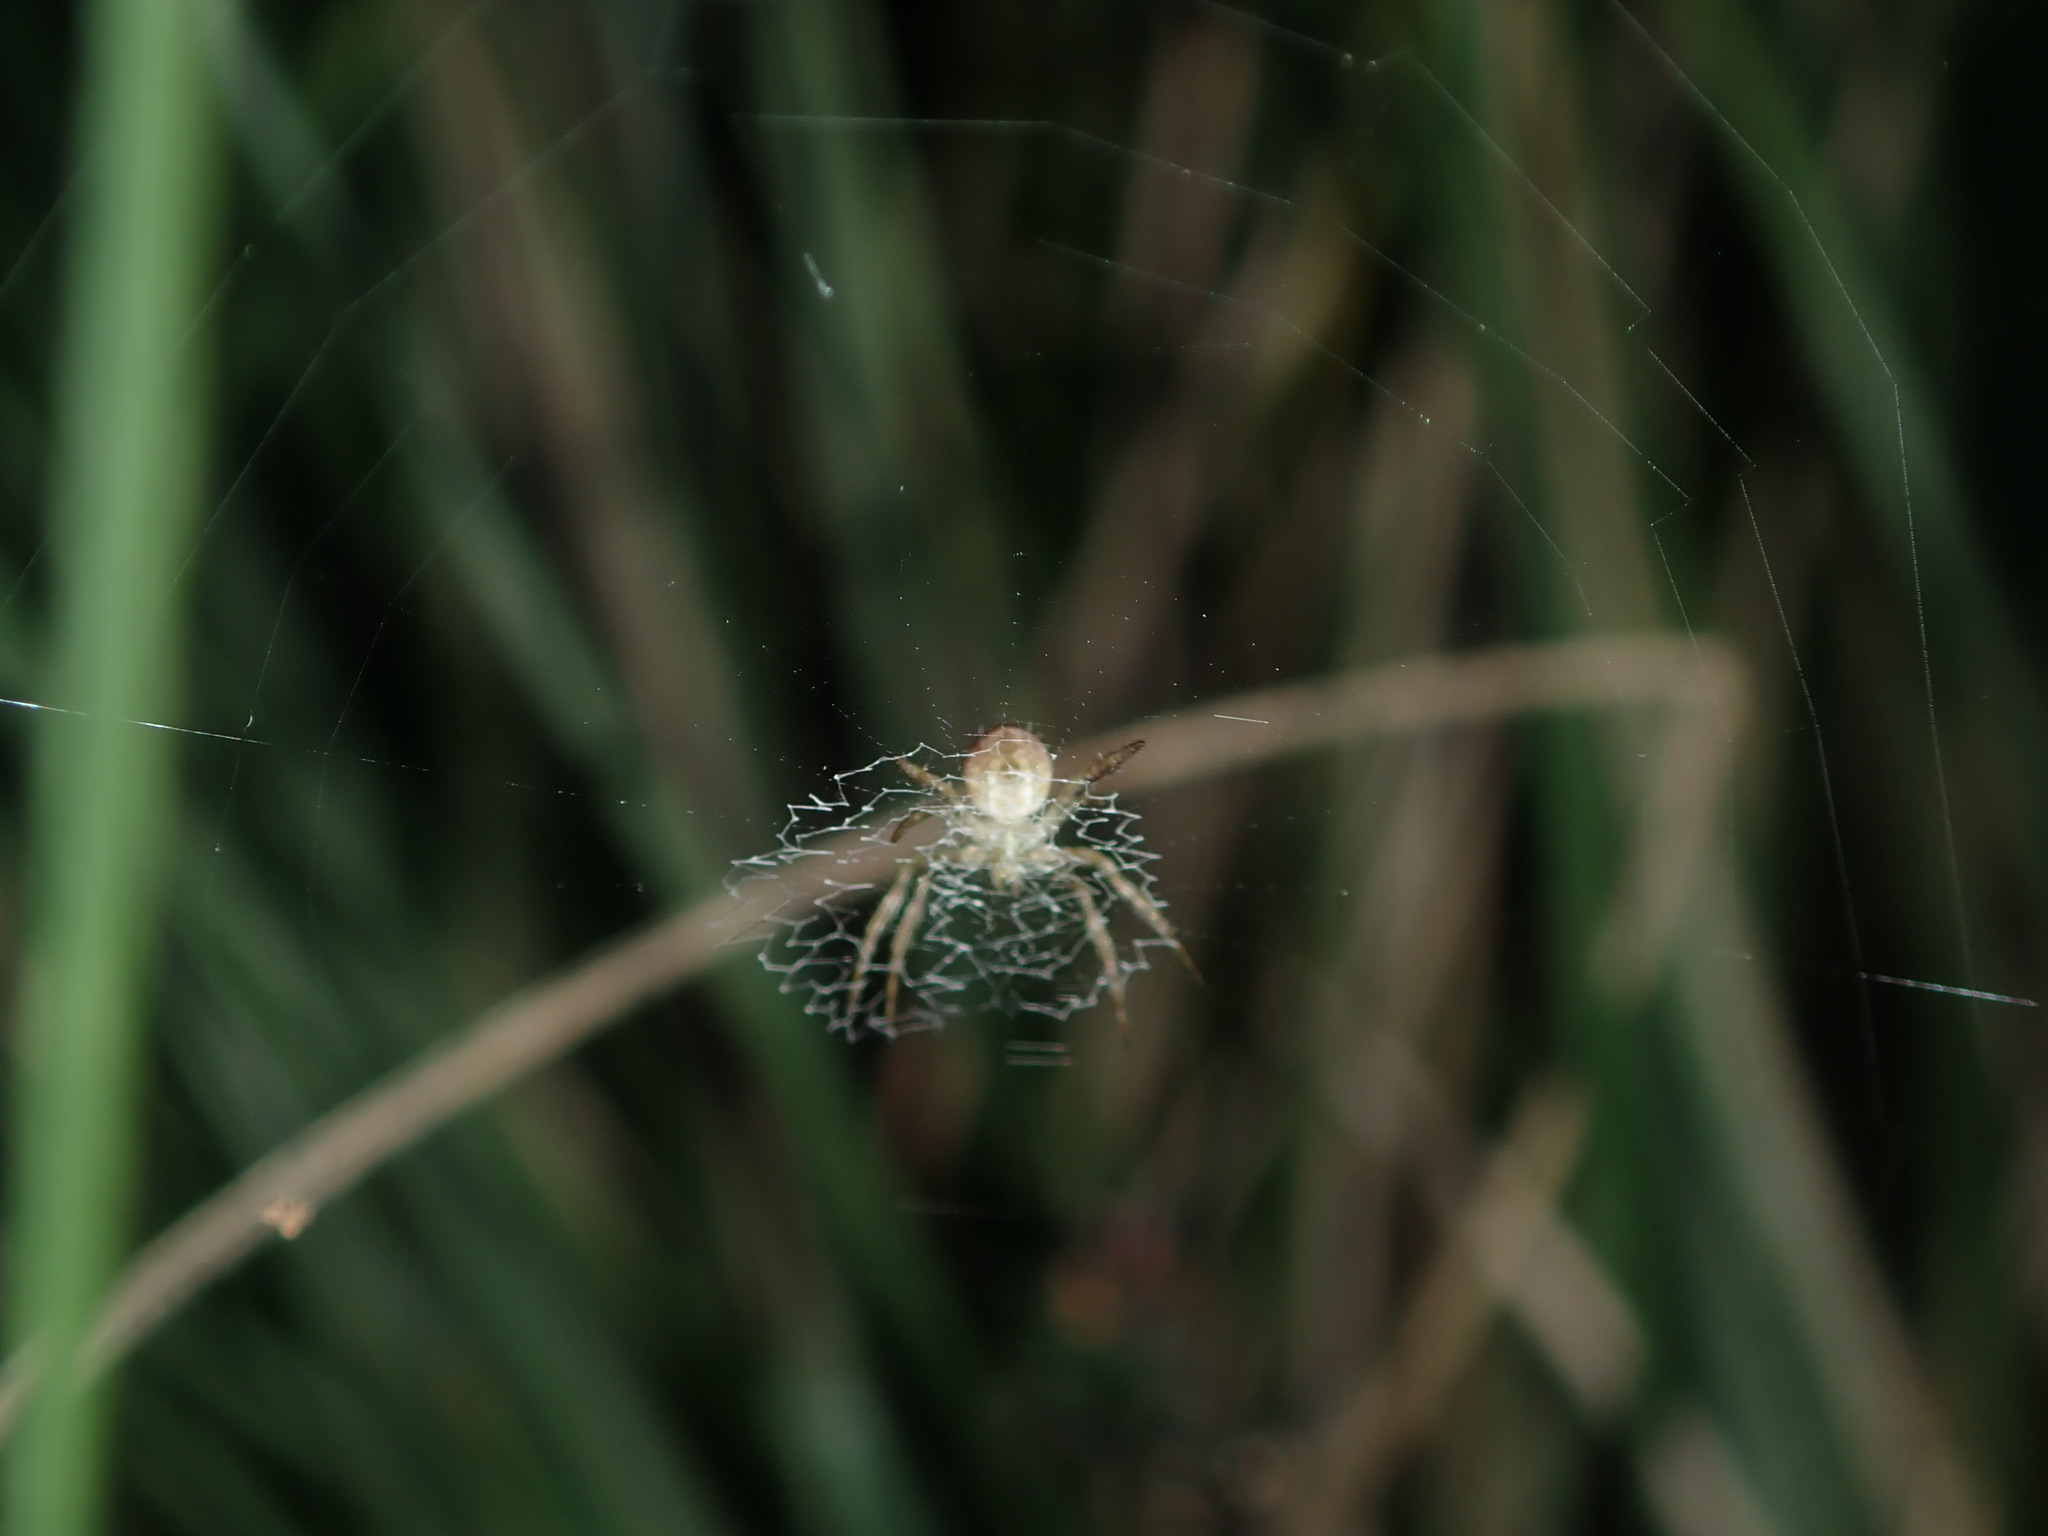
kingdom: Animalia
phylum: Arthropoda
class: Arachnida
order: Araneae
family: Araneidae
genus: Argiope
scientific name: Argiope keyserlingi
